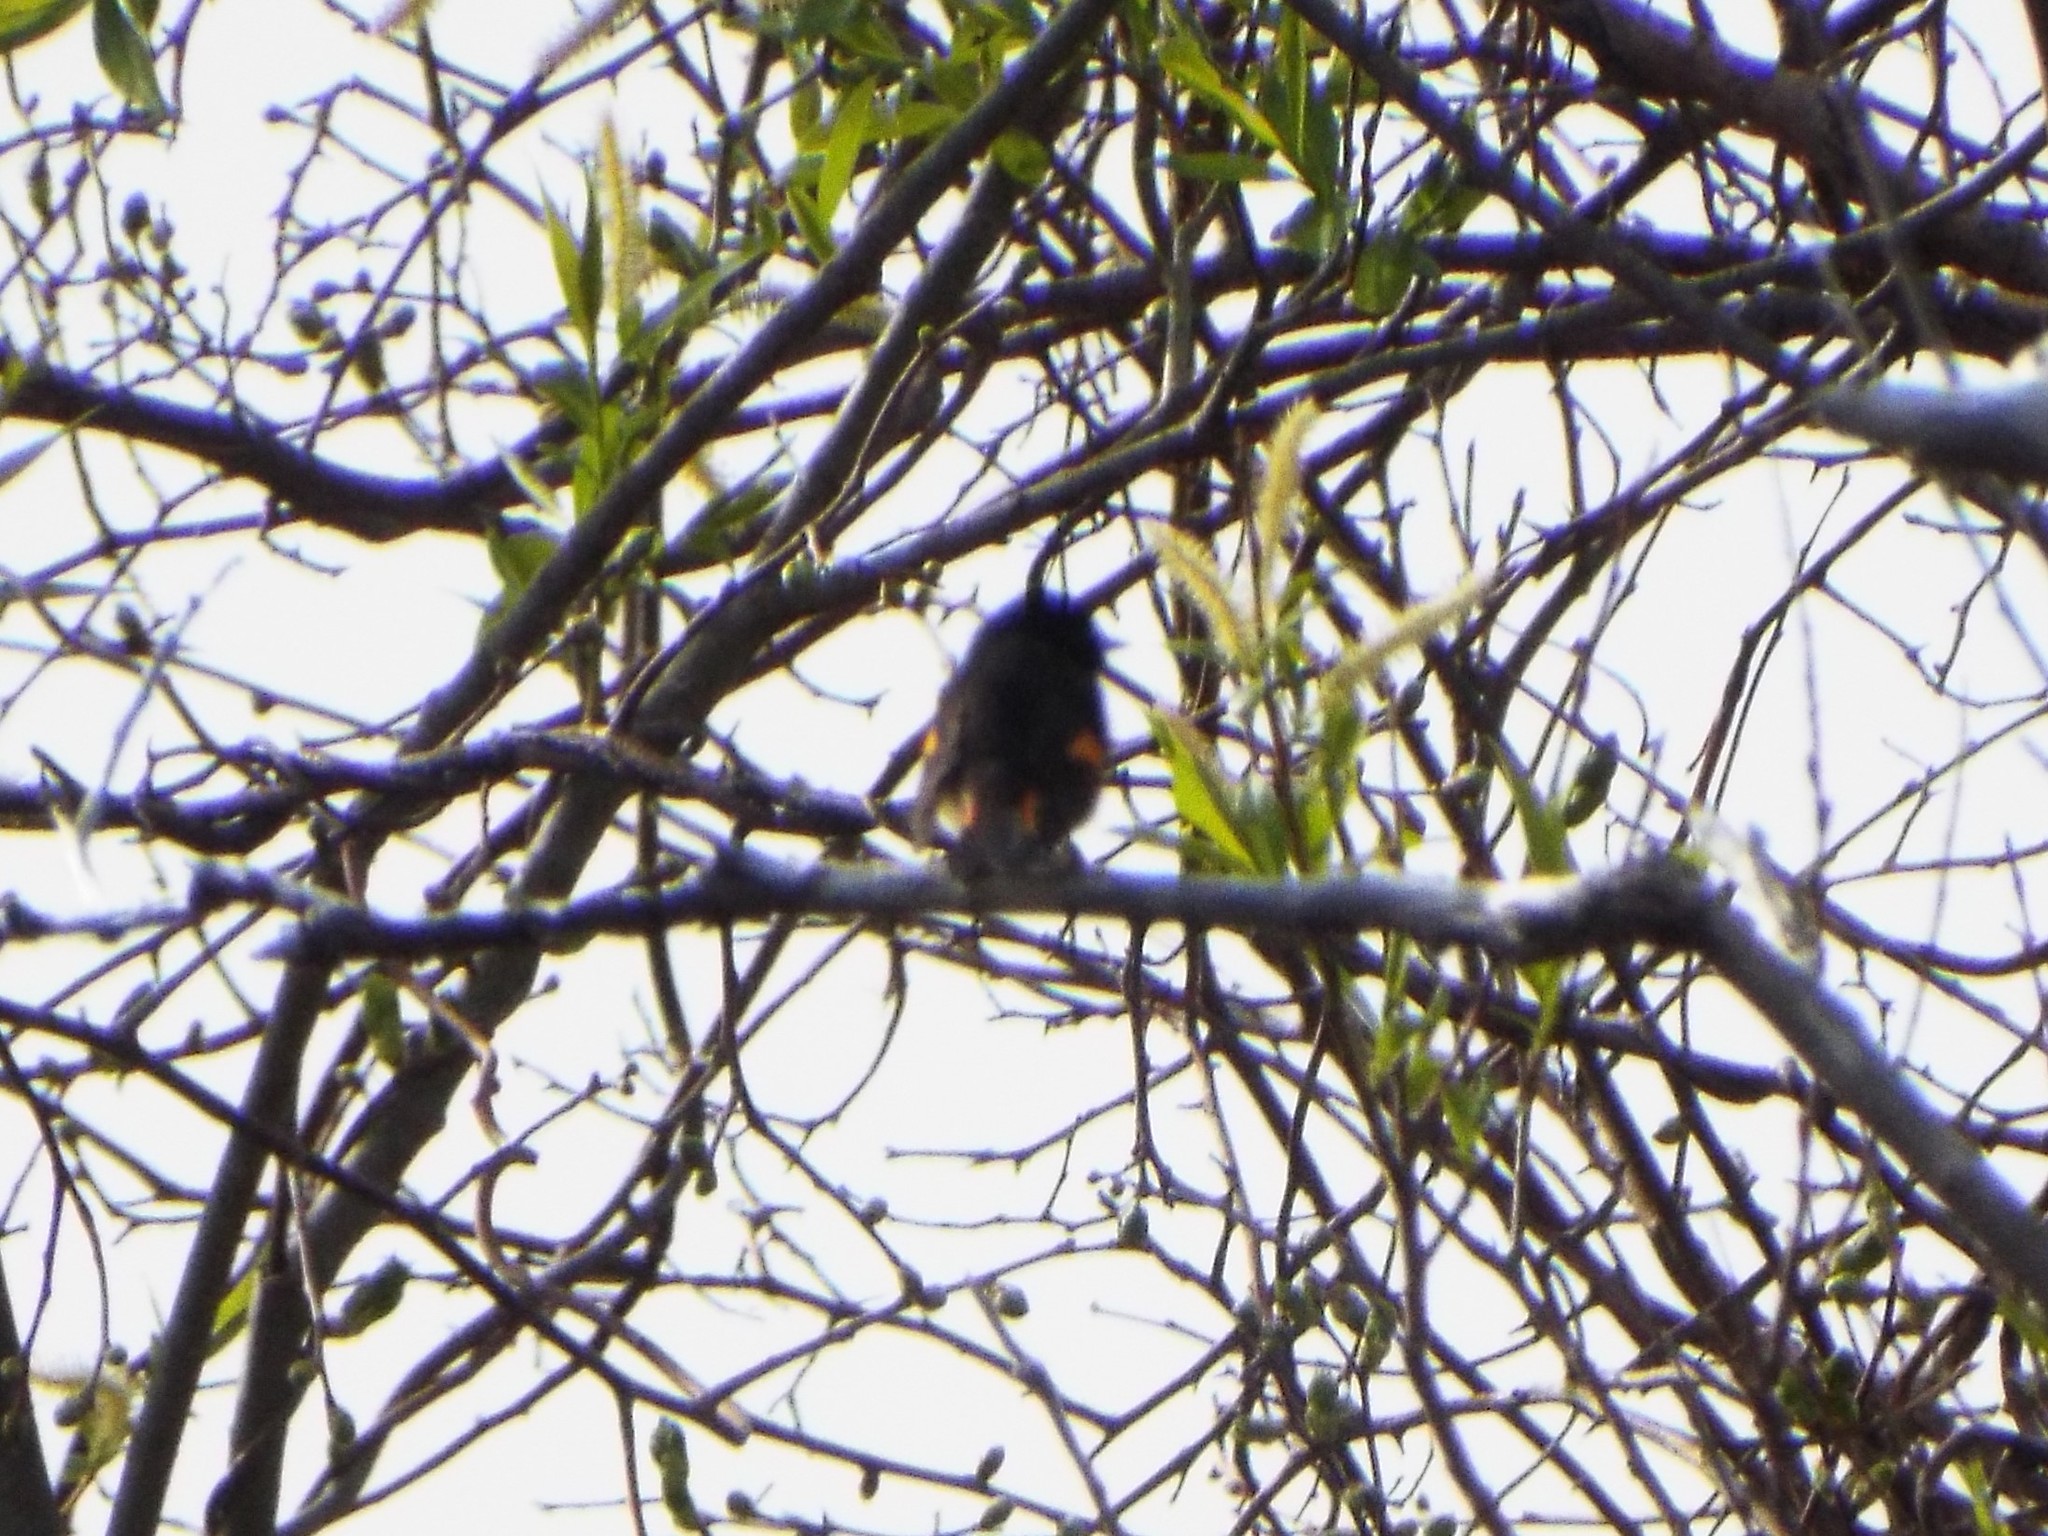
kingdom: Animalia
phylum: Chordata
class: Aves
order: Passeriformes
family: Parulidae
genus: Setophaga
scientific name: Setophaga ruticilla
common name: American redstart
